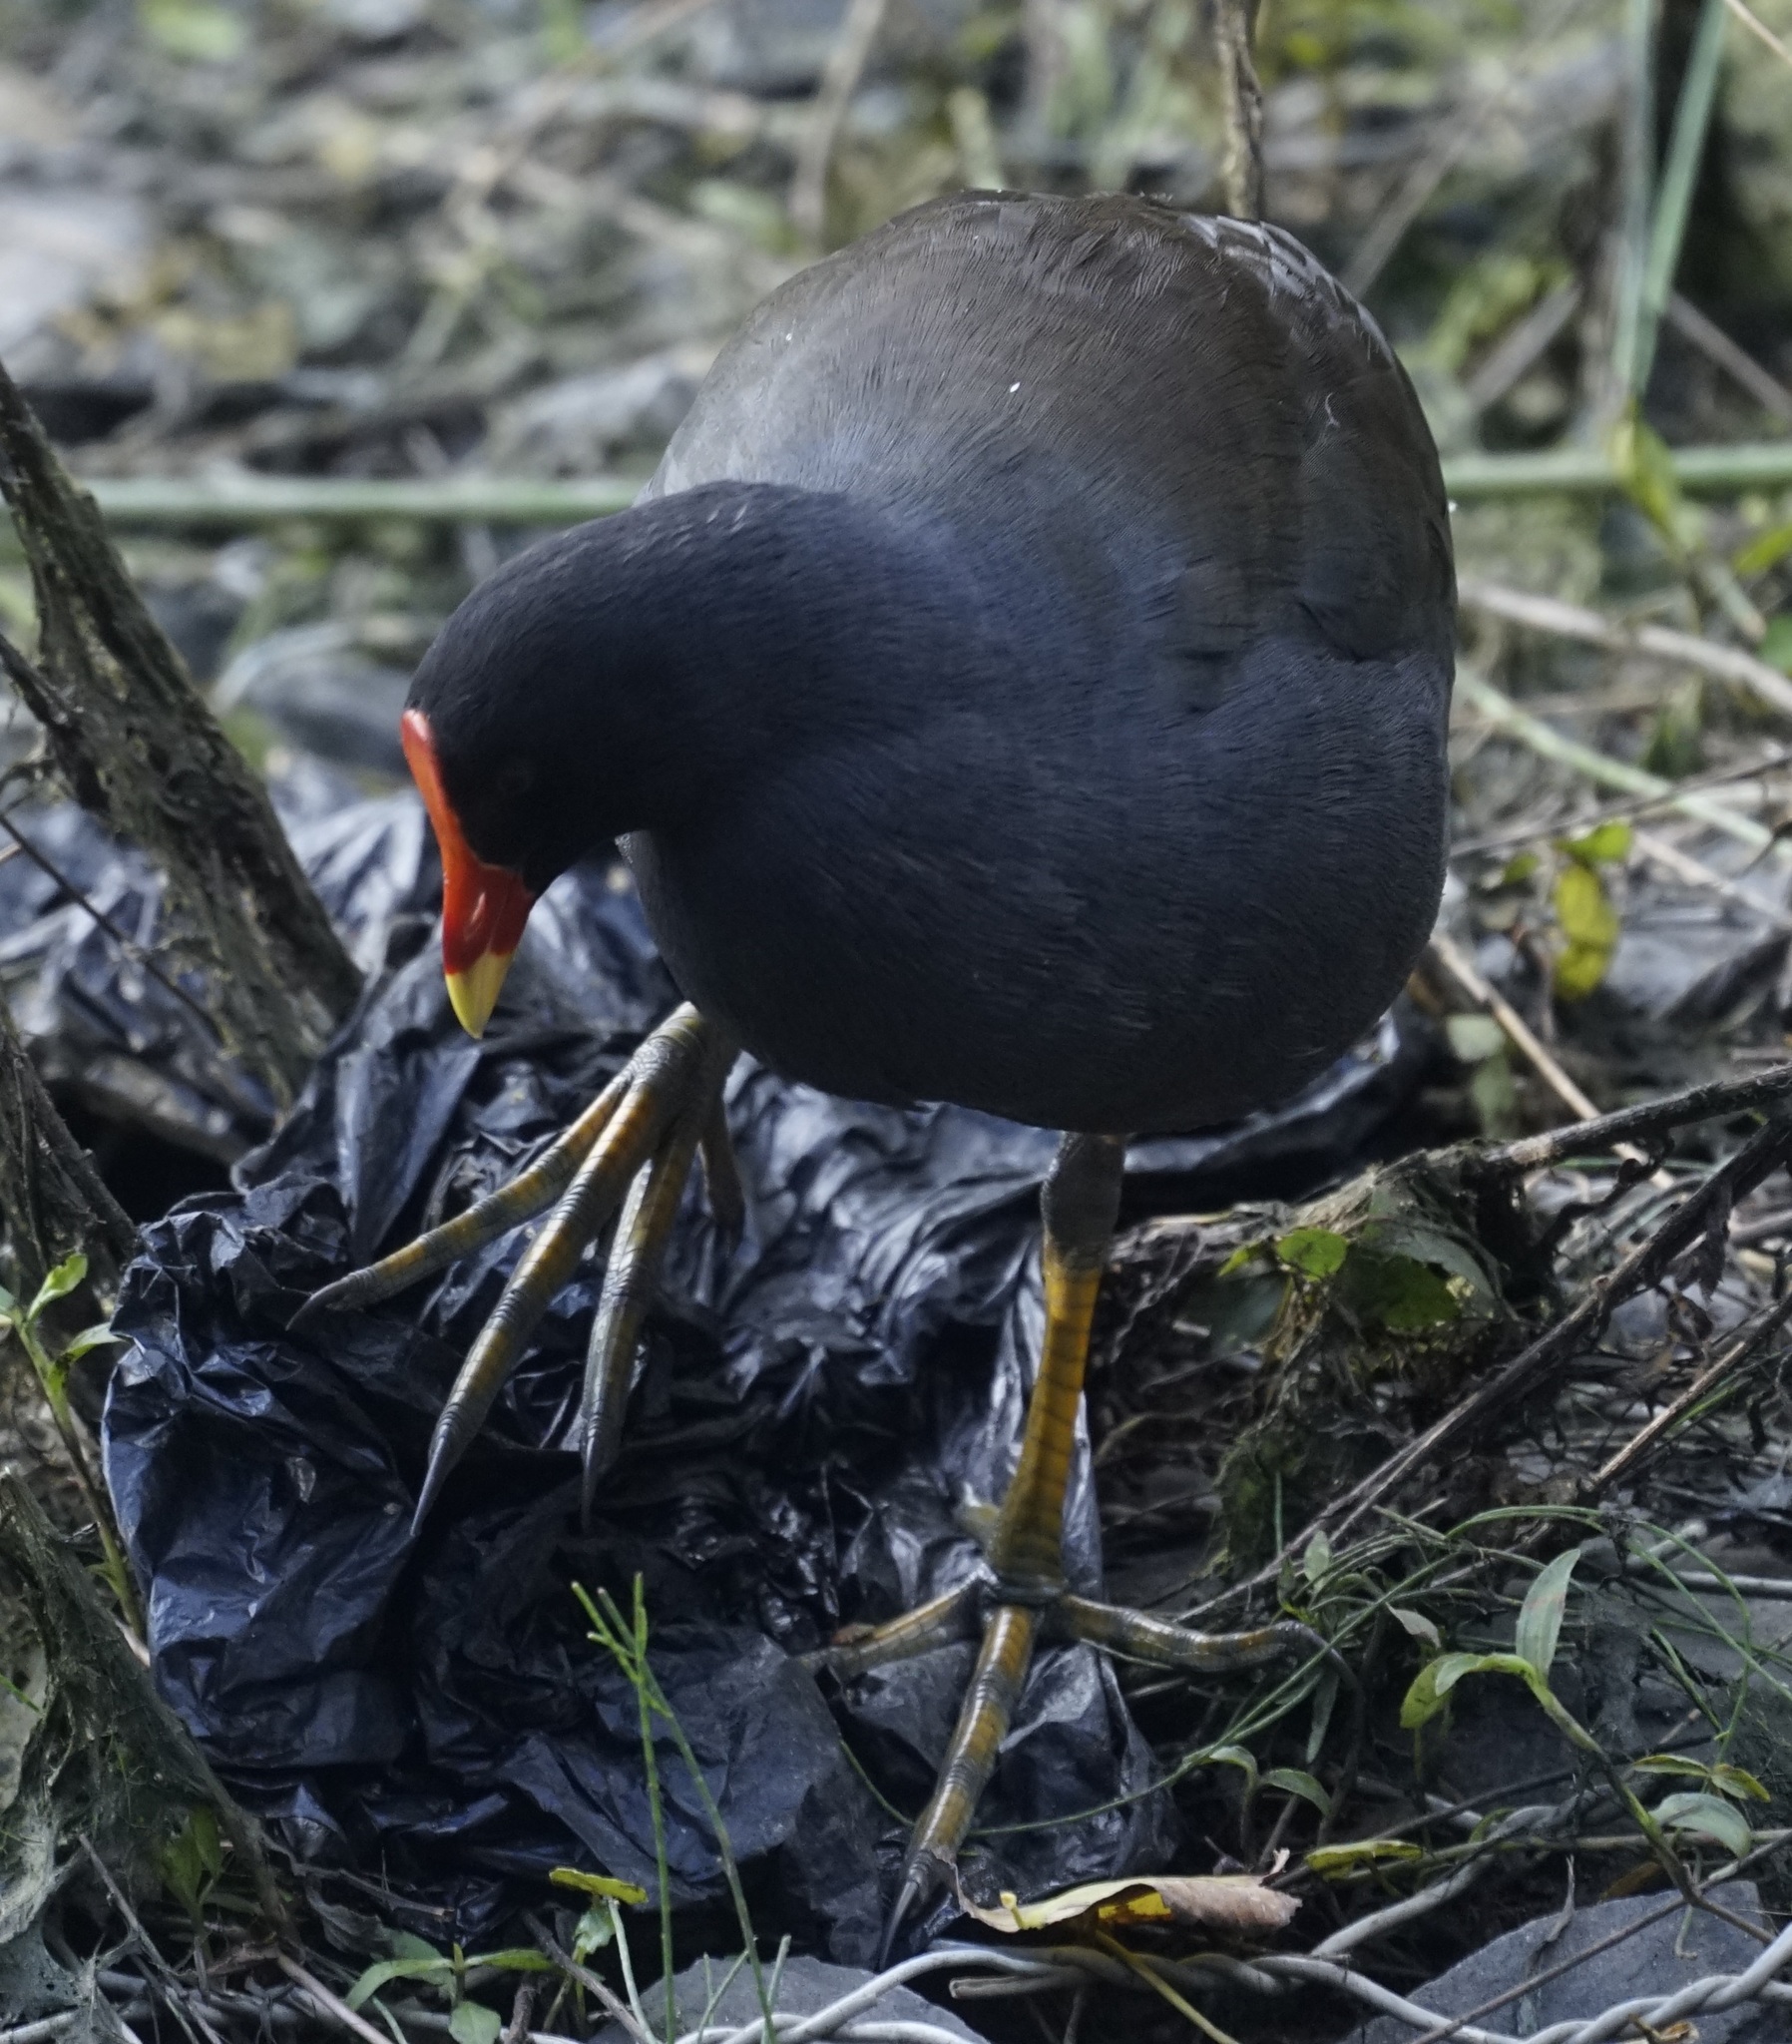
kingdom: Animalia
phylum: Chordata
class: Aves
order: Gruiformes
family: Rallidae
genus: Gallinula
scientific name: Gallinula tenebrosa
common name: Dusky moorhen
